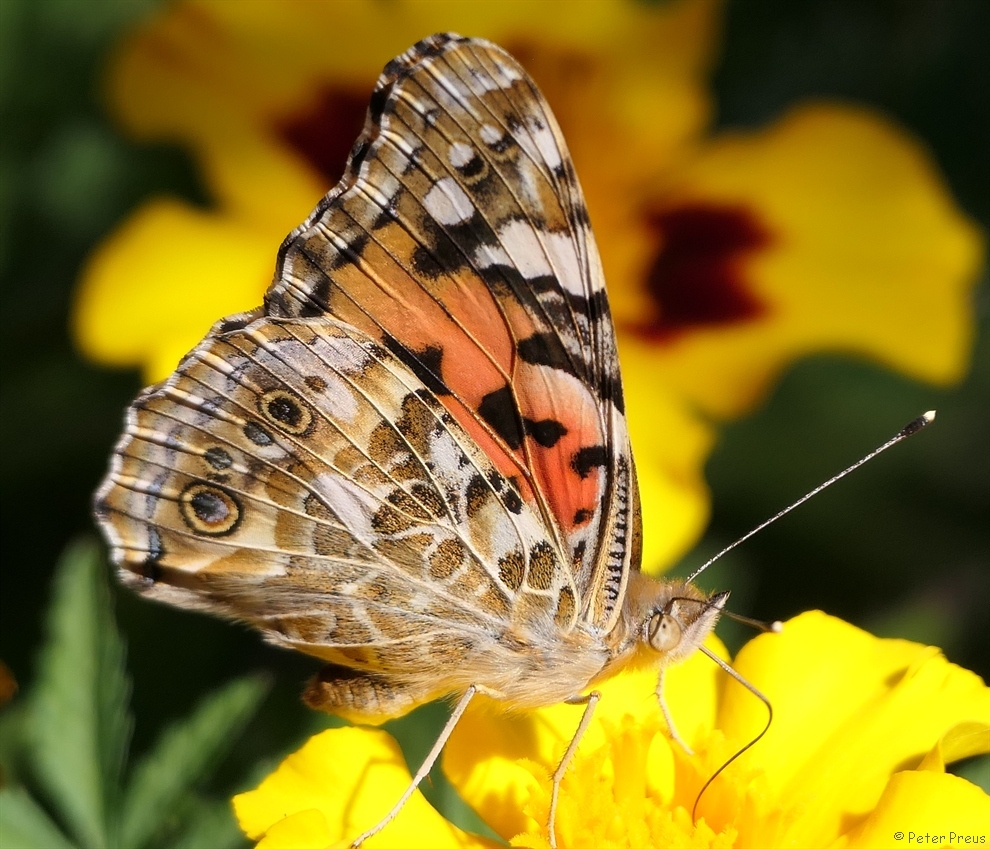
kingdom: Animalia
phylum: Arthropoda
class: Insecta
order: Lepidoptera
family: Nymphalidae
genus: Vanessa
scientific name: Vanessa cardui
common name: Painted lady
